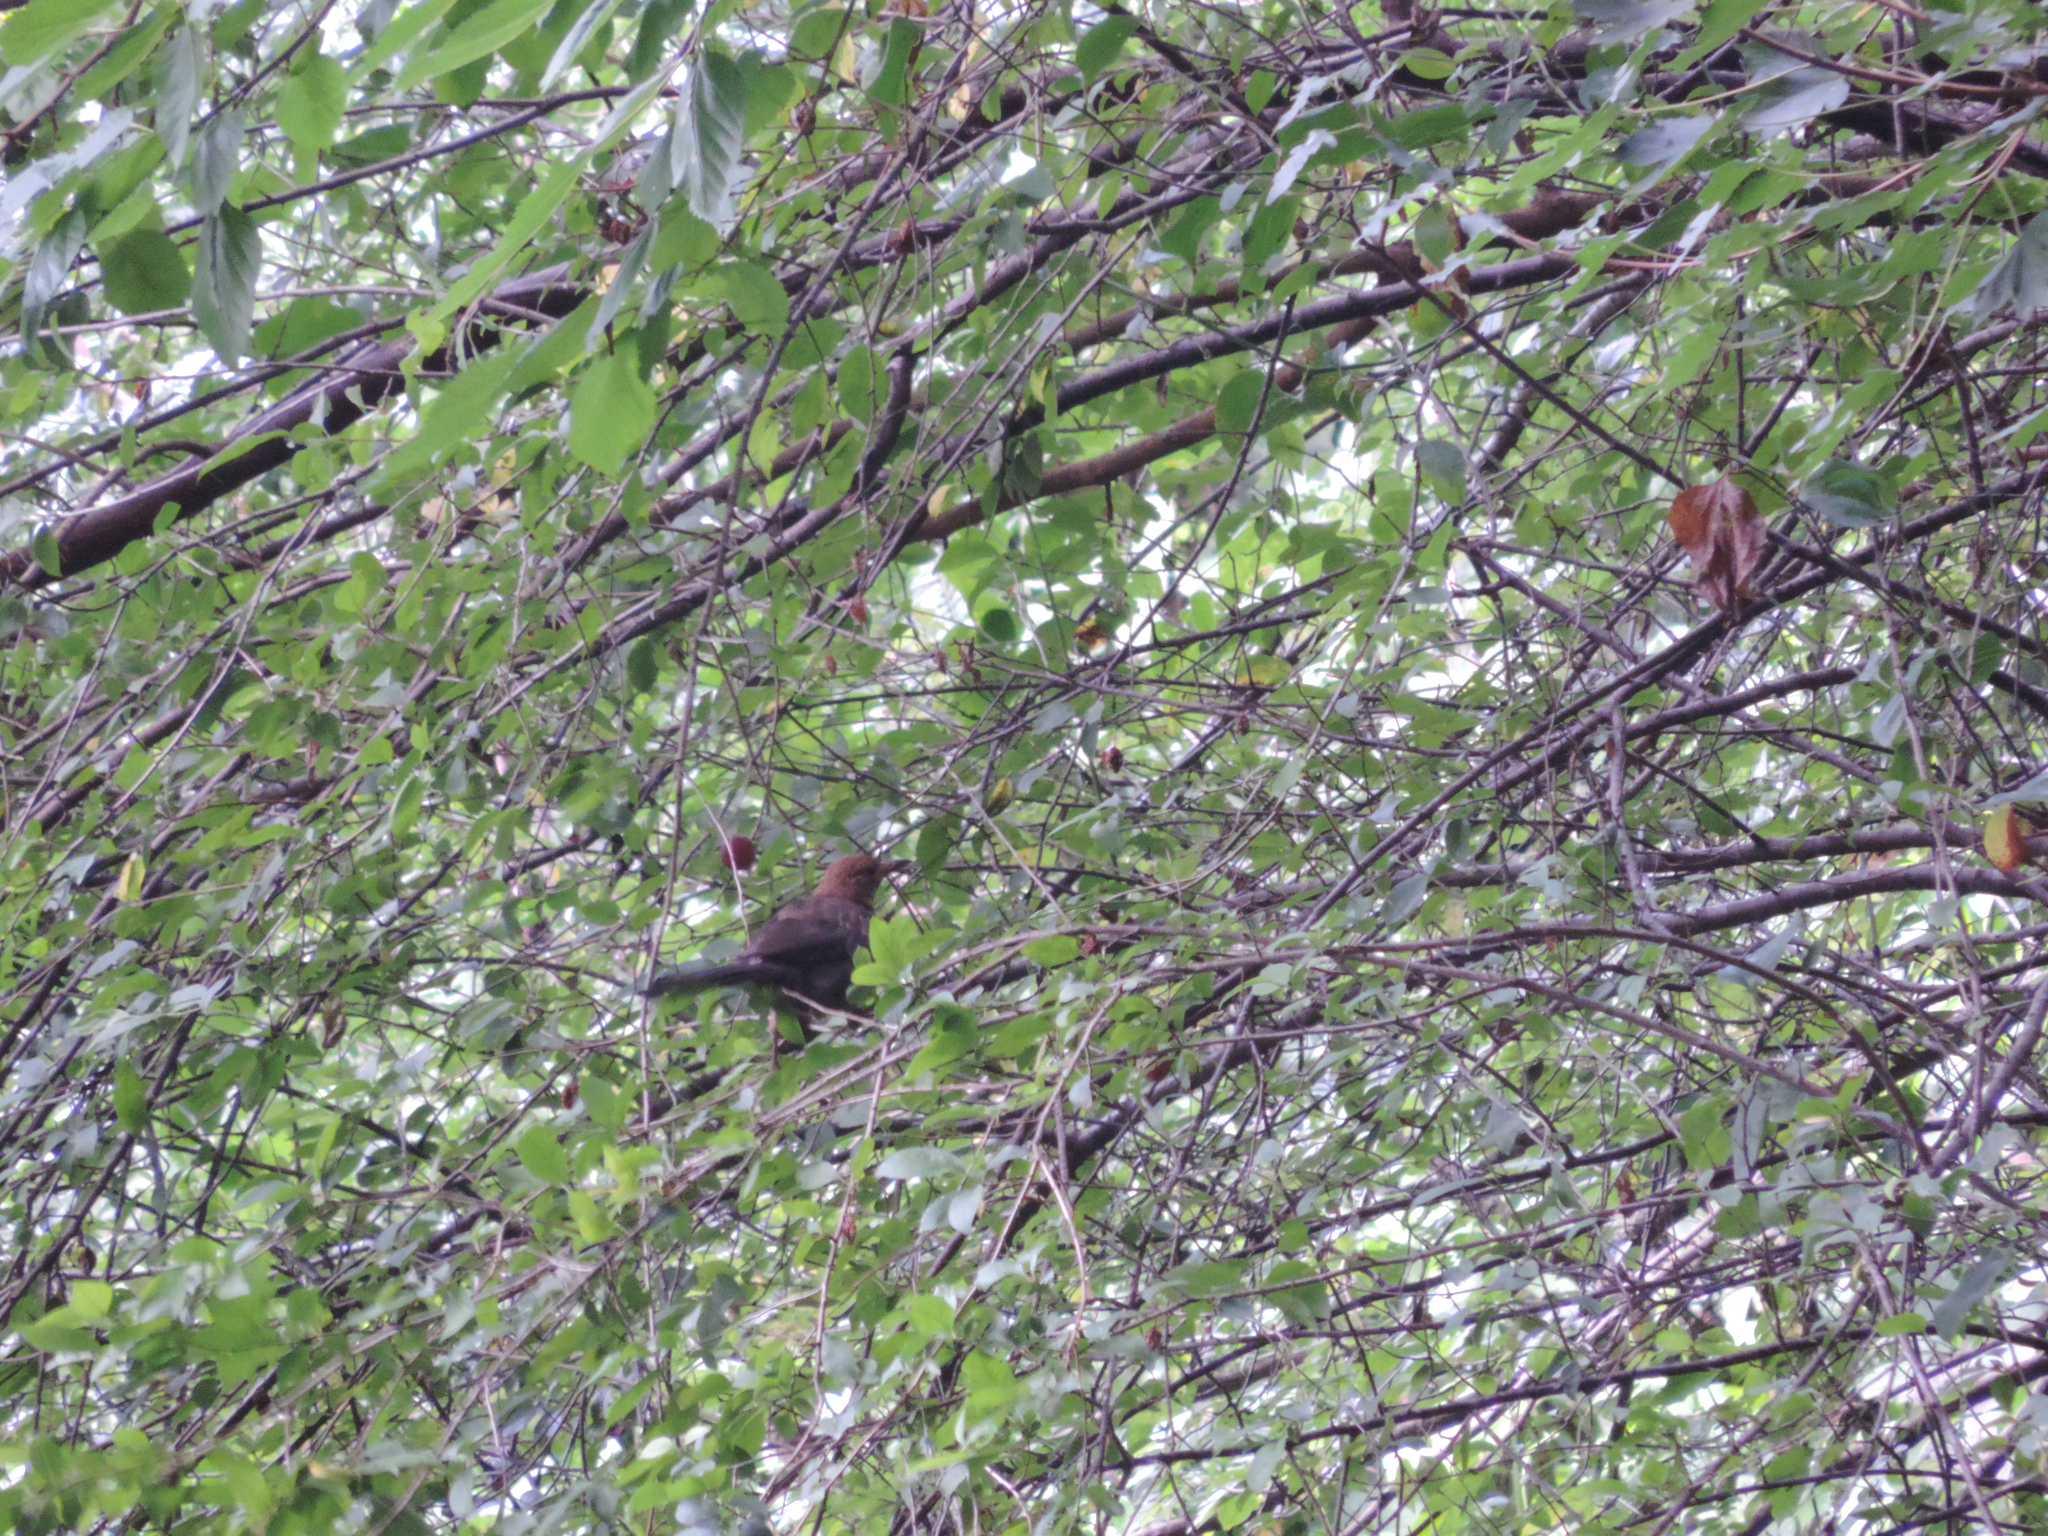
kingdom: Animalia
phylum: Chordata
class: Aves
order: Passeriformes
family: Turdidae
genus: Turdus
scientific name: Turdus merula
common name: Common blackbird
